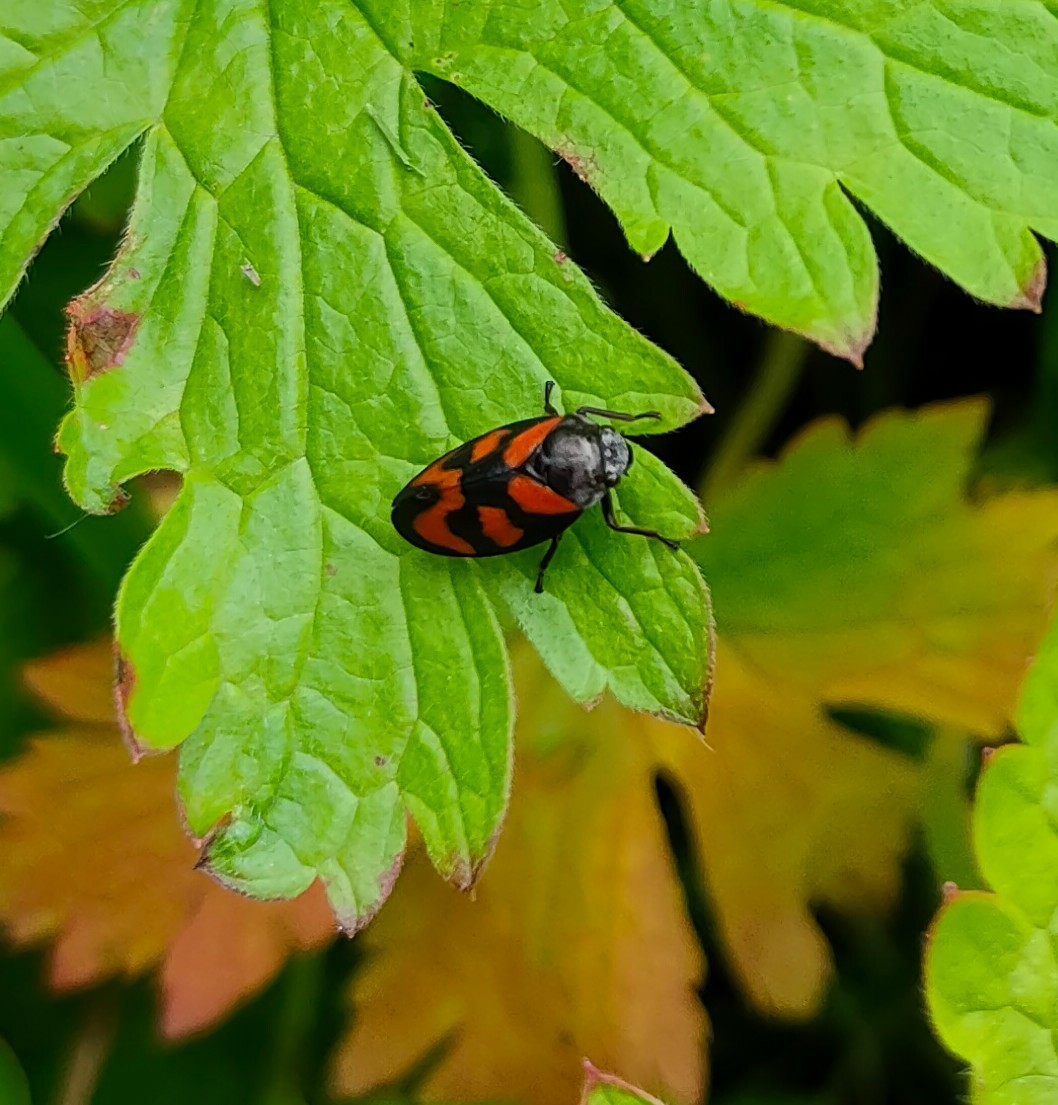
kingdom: Animalia
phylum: Arthropoda
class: Insecta
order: Hemiptera
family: Cercopidae
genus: Cercopis
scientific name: Cercopis vulnerata
